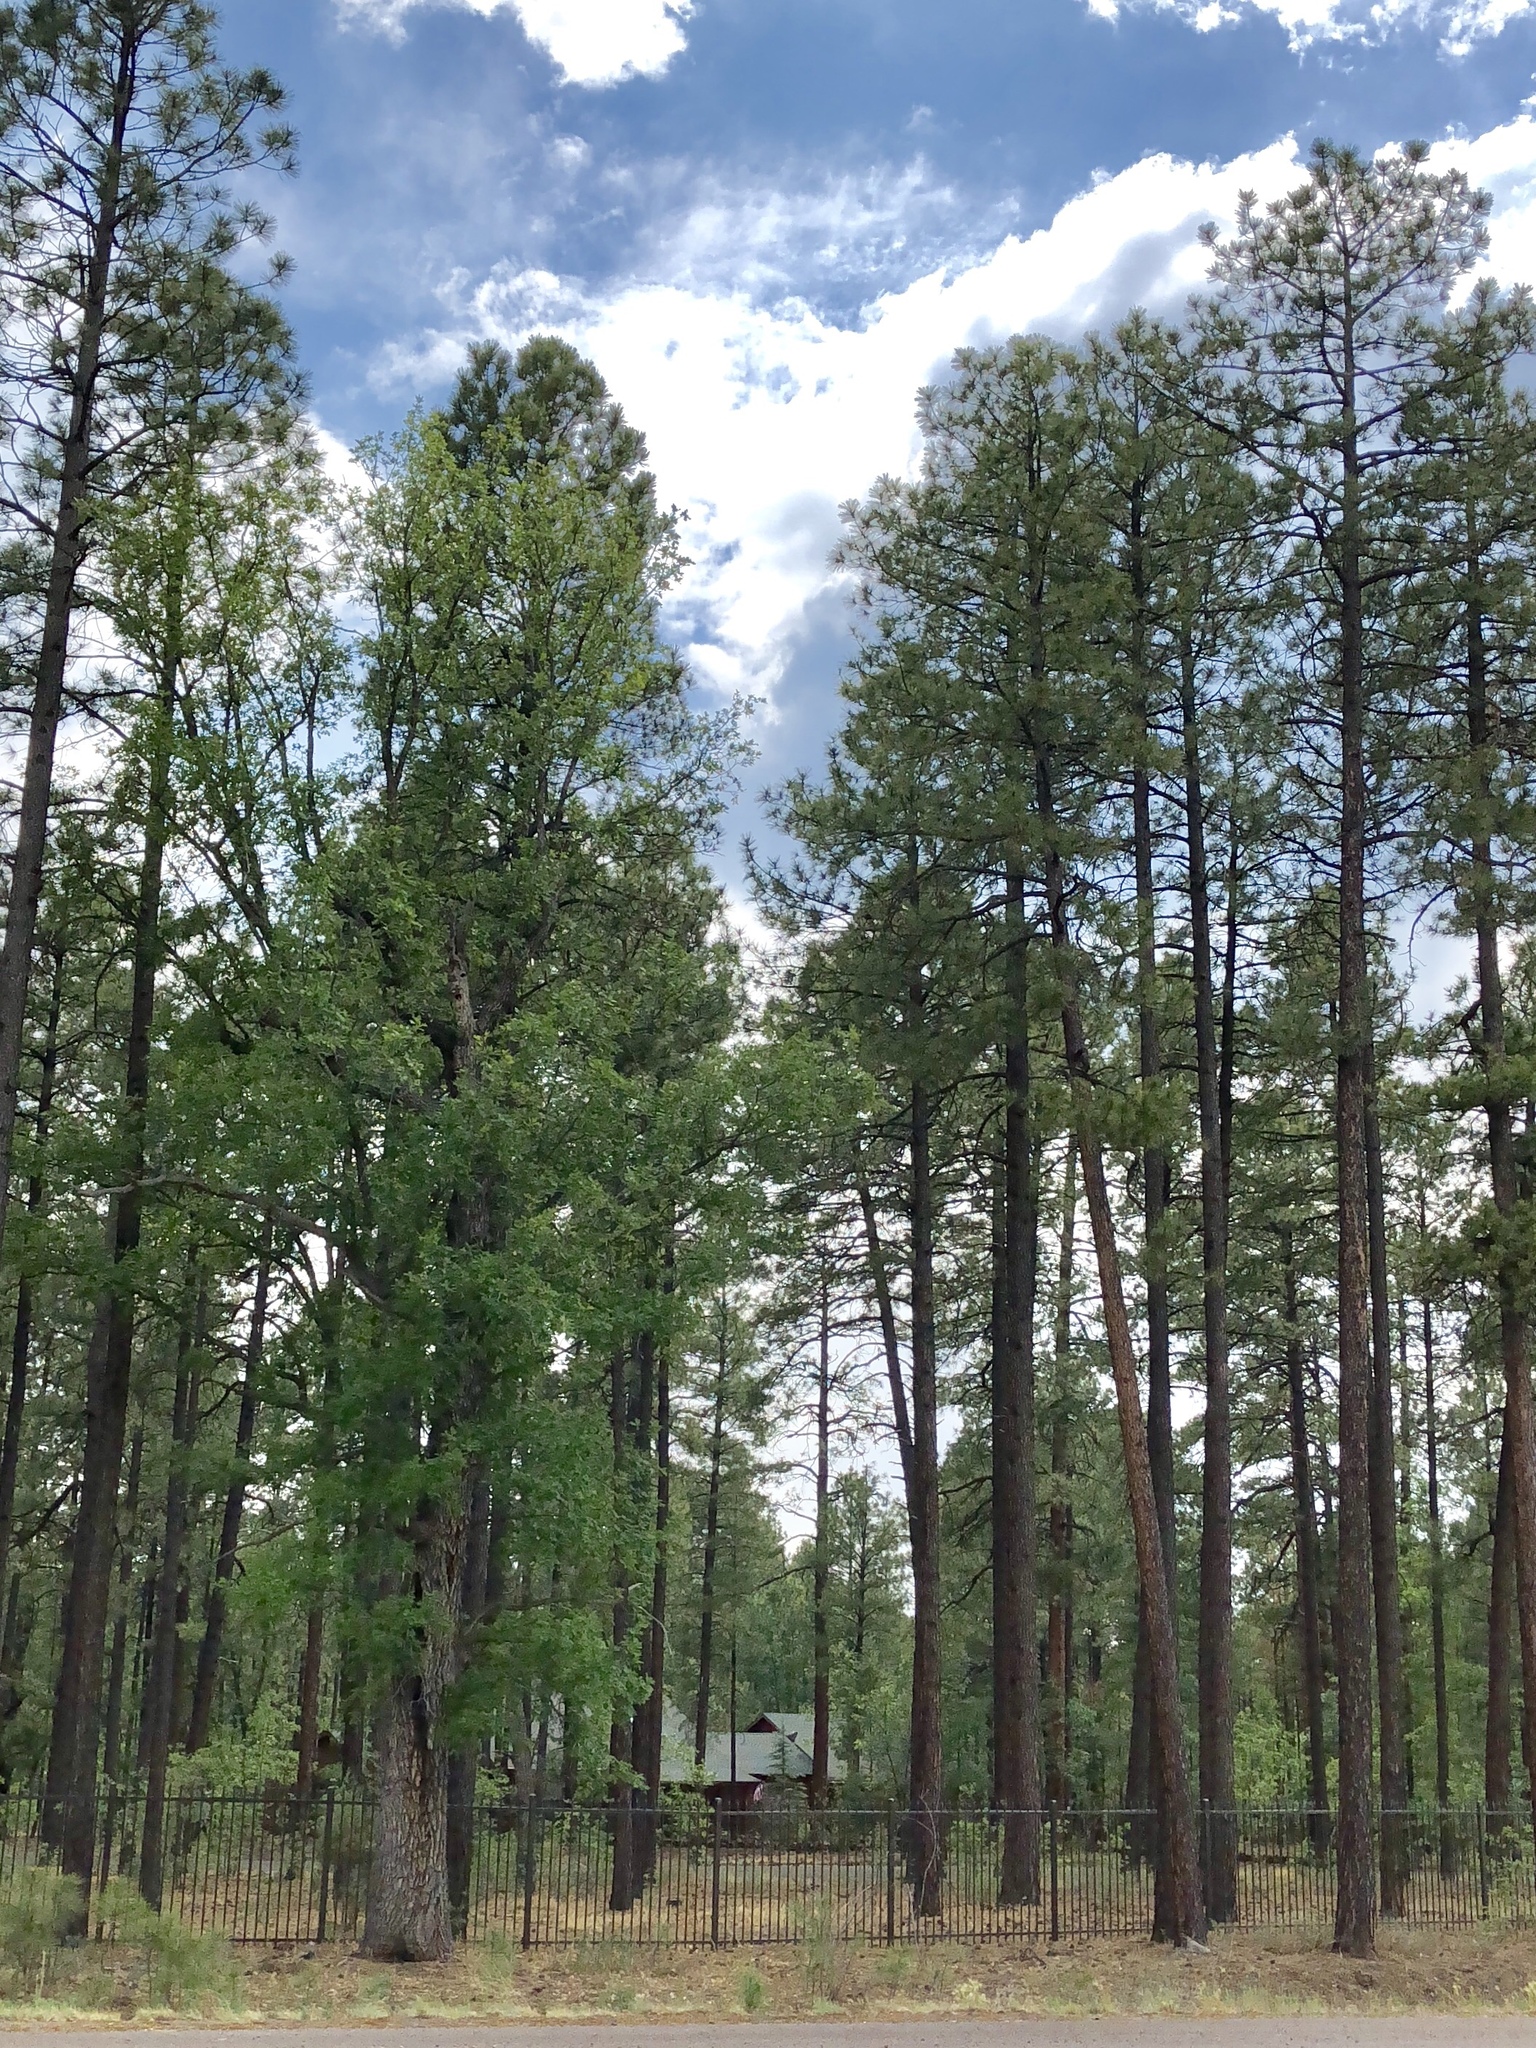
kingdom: Plantae
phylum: Tracheophyta
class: Pinopsida
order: Pinales
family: Pinaceae
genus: Pinus
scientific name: Pinus ponderosa
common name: Western yellow-pine
